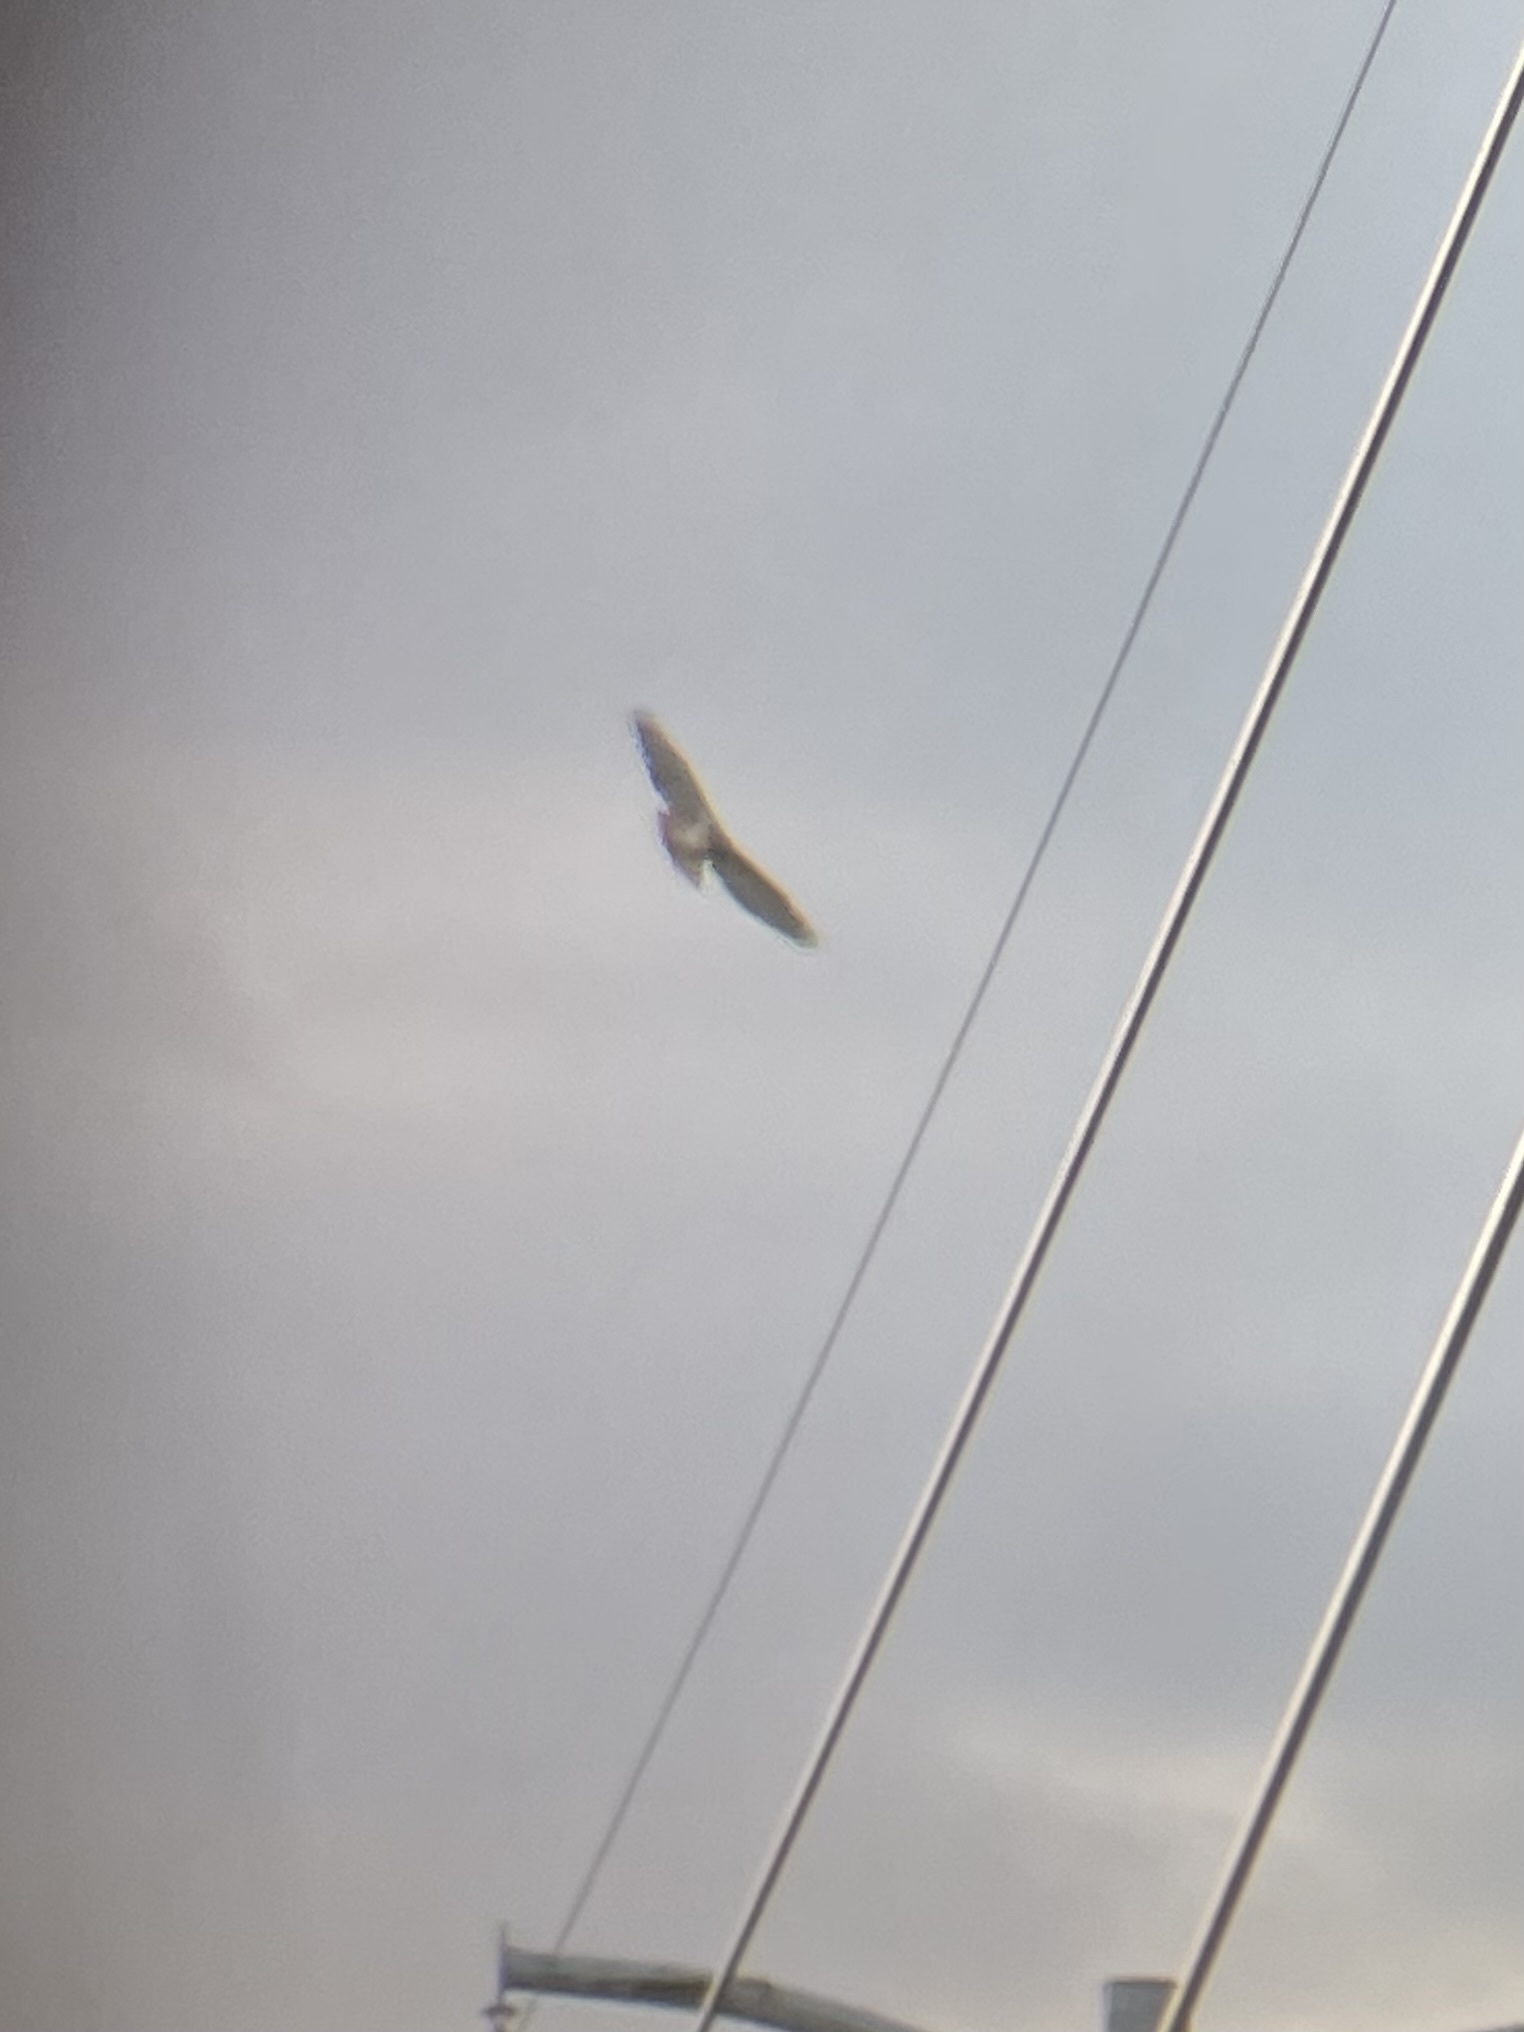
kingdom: Animalia
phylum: Chordata
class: Aves
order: Accipitriformes
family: Accipitridae
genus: Buteo
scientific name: Buteo jamaicensis
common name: Red-tailed hawk
